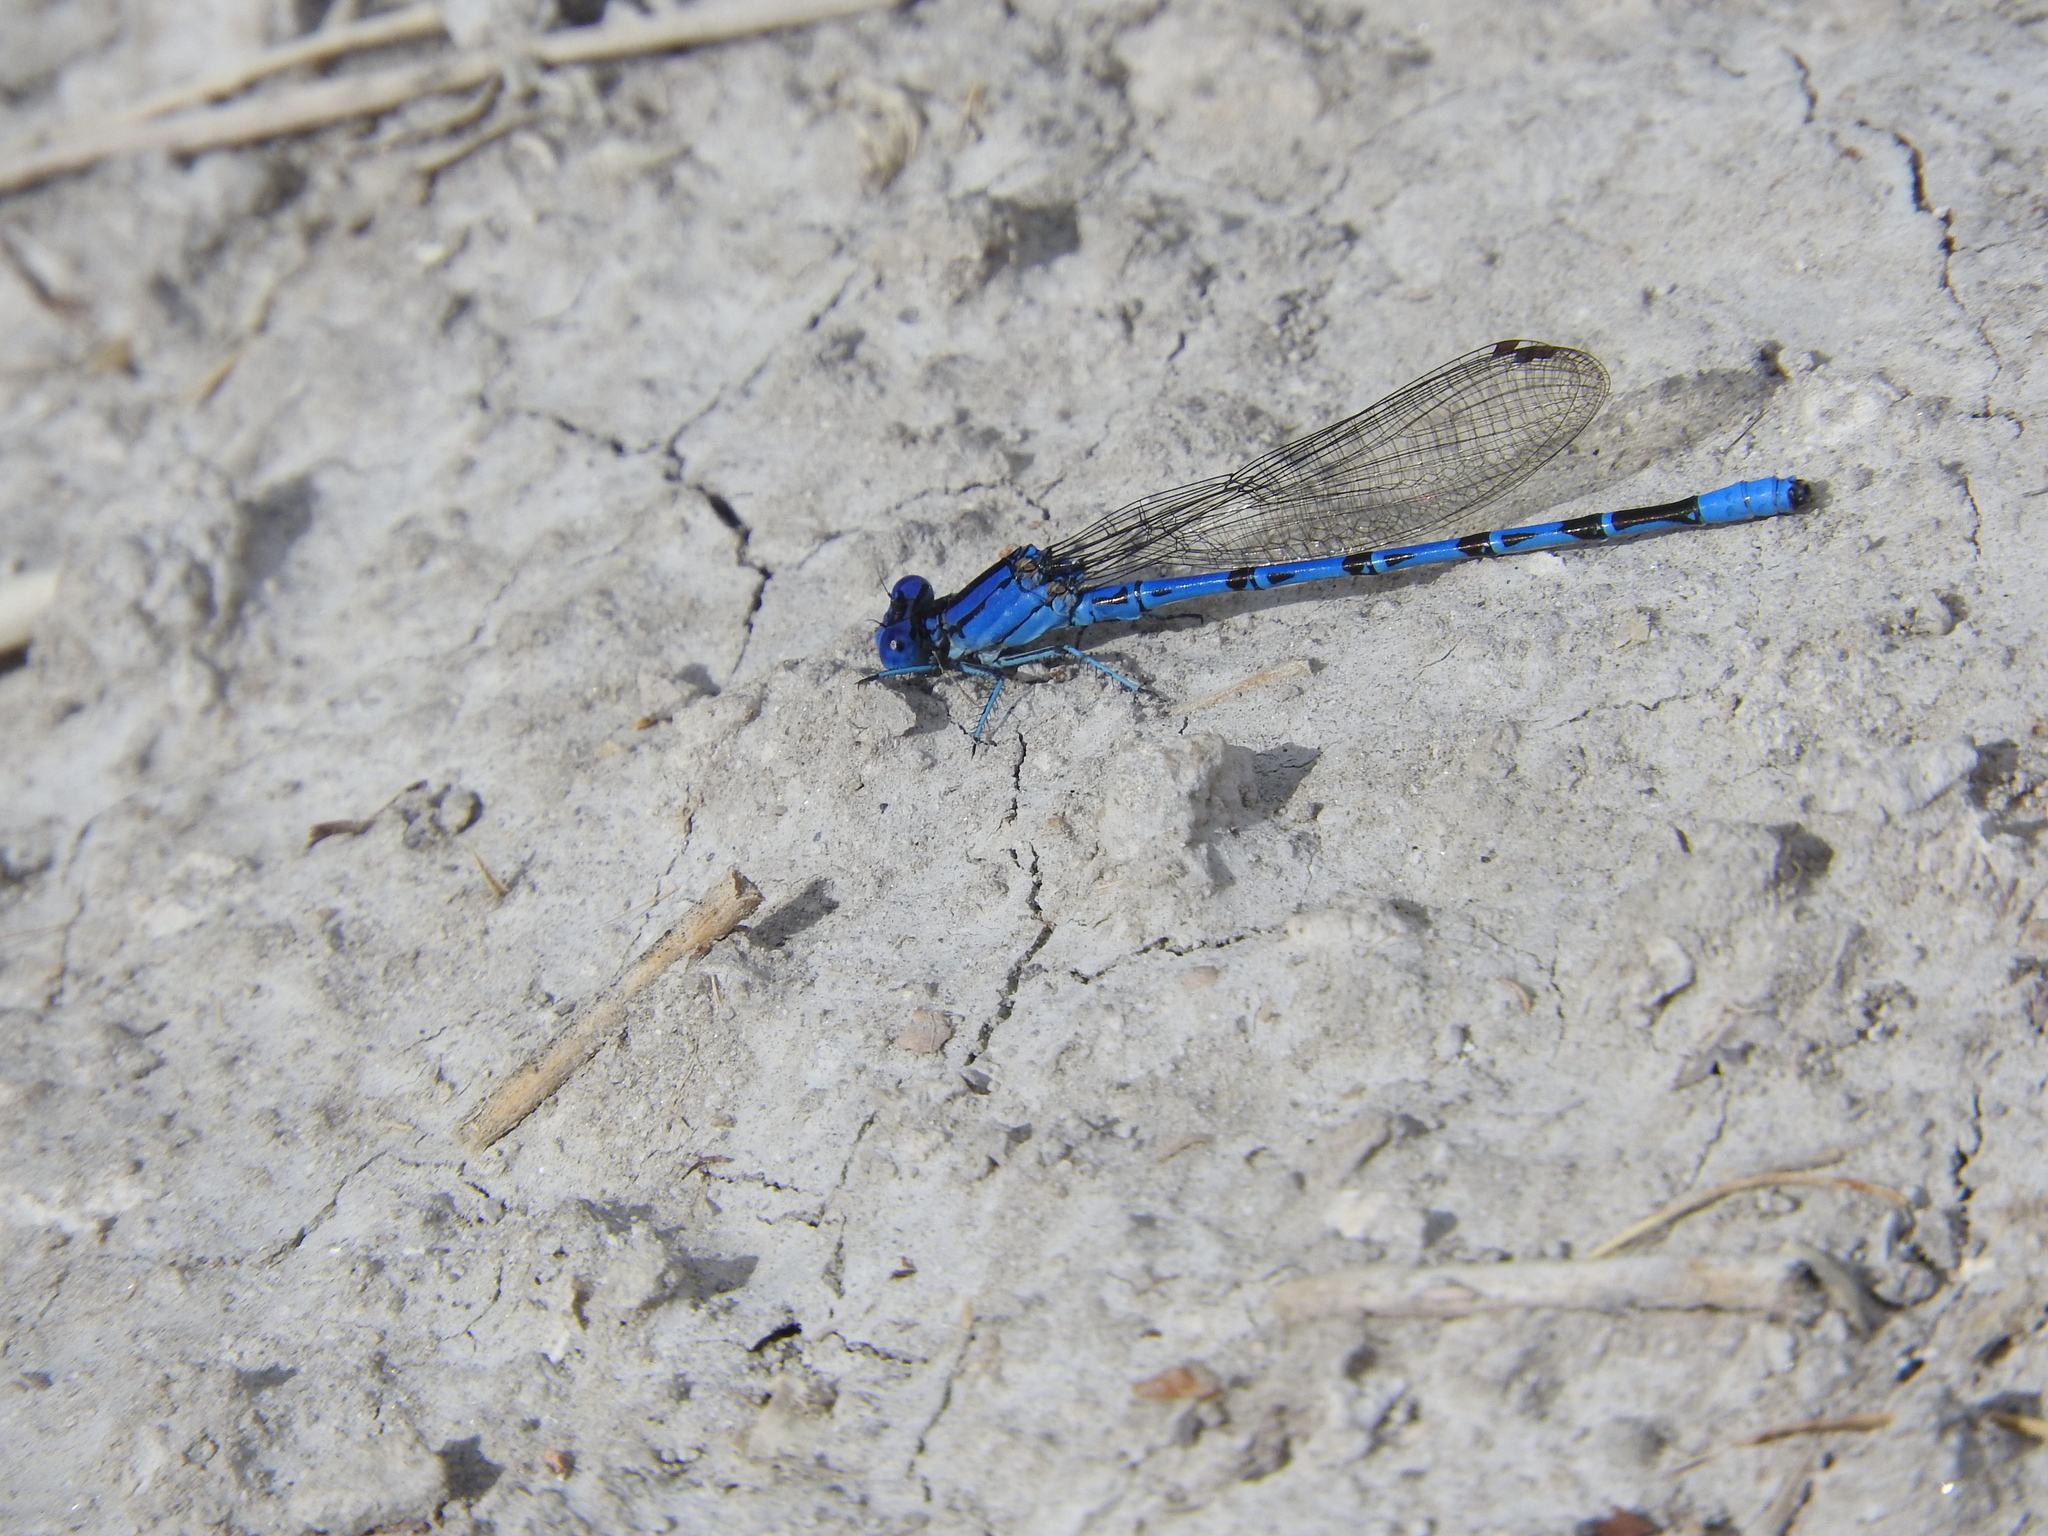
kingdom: Animalia
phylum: Arthropoda
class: Insecta
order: Odonata
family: Coenagrionidae
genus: Argia
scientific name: Argia vivida
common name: Vivid dancer
